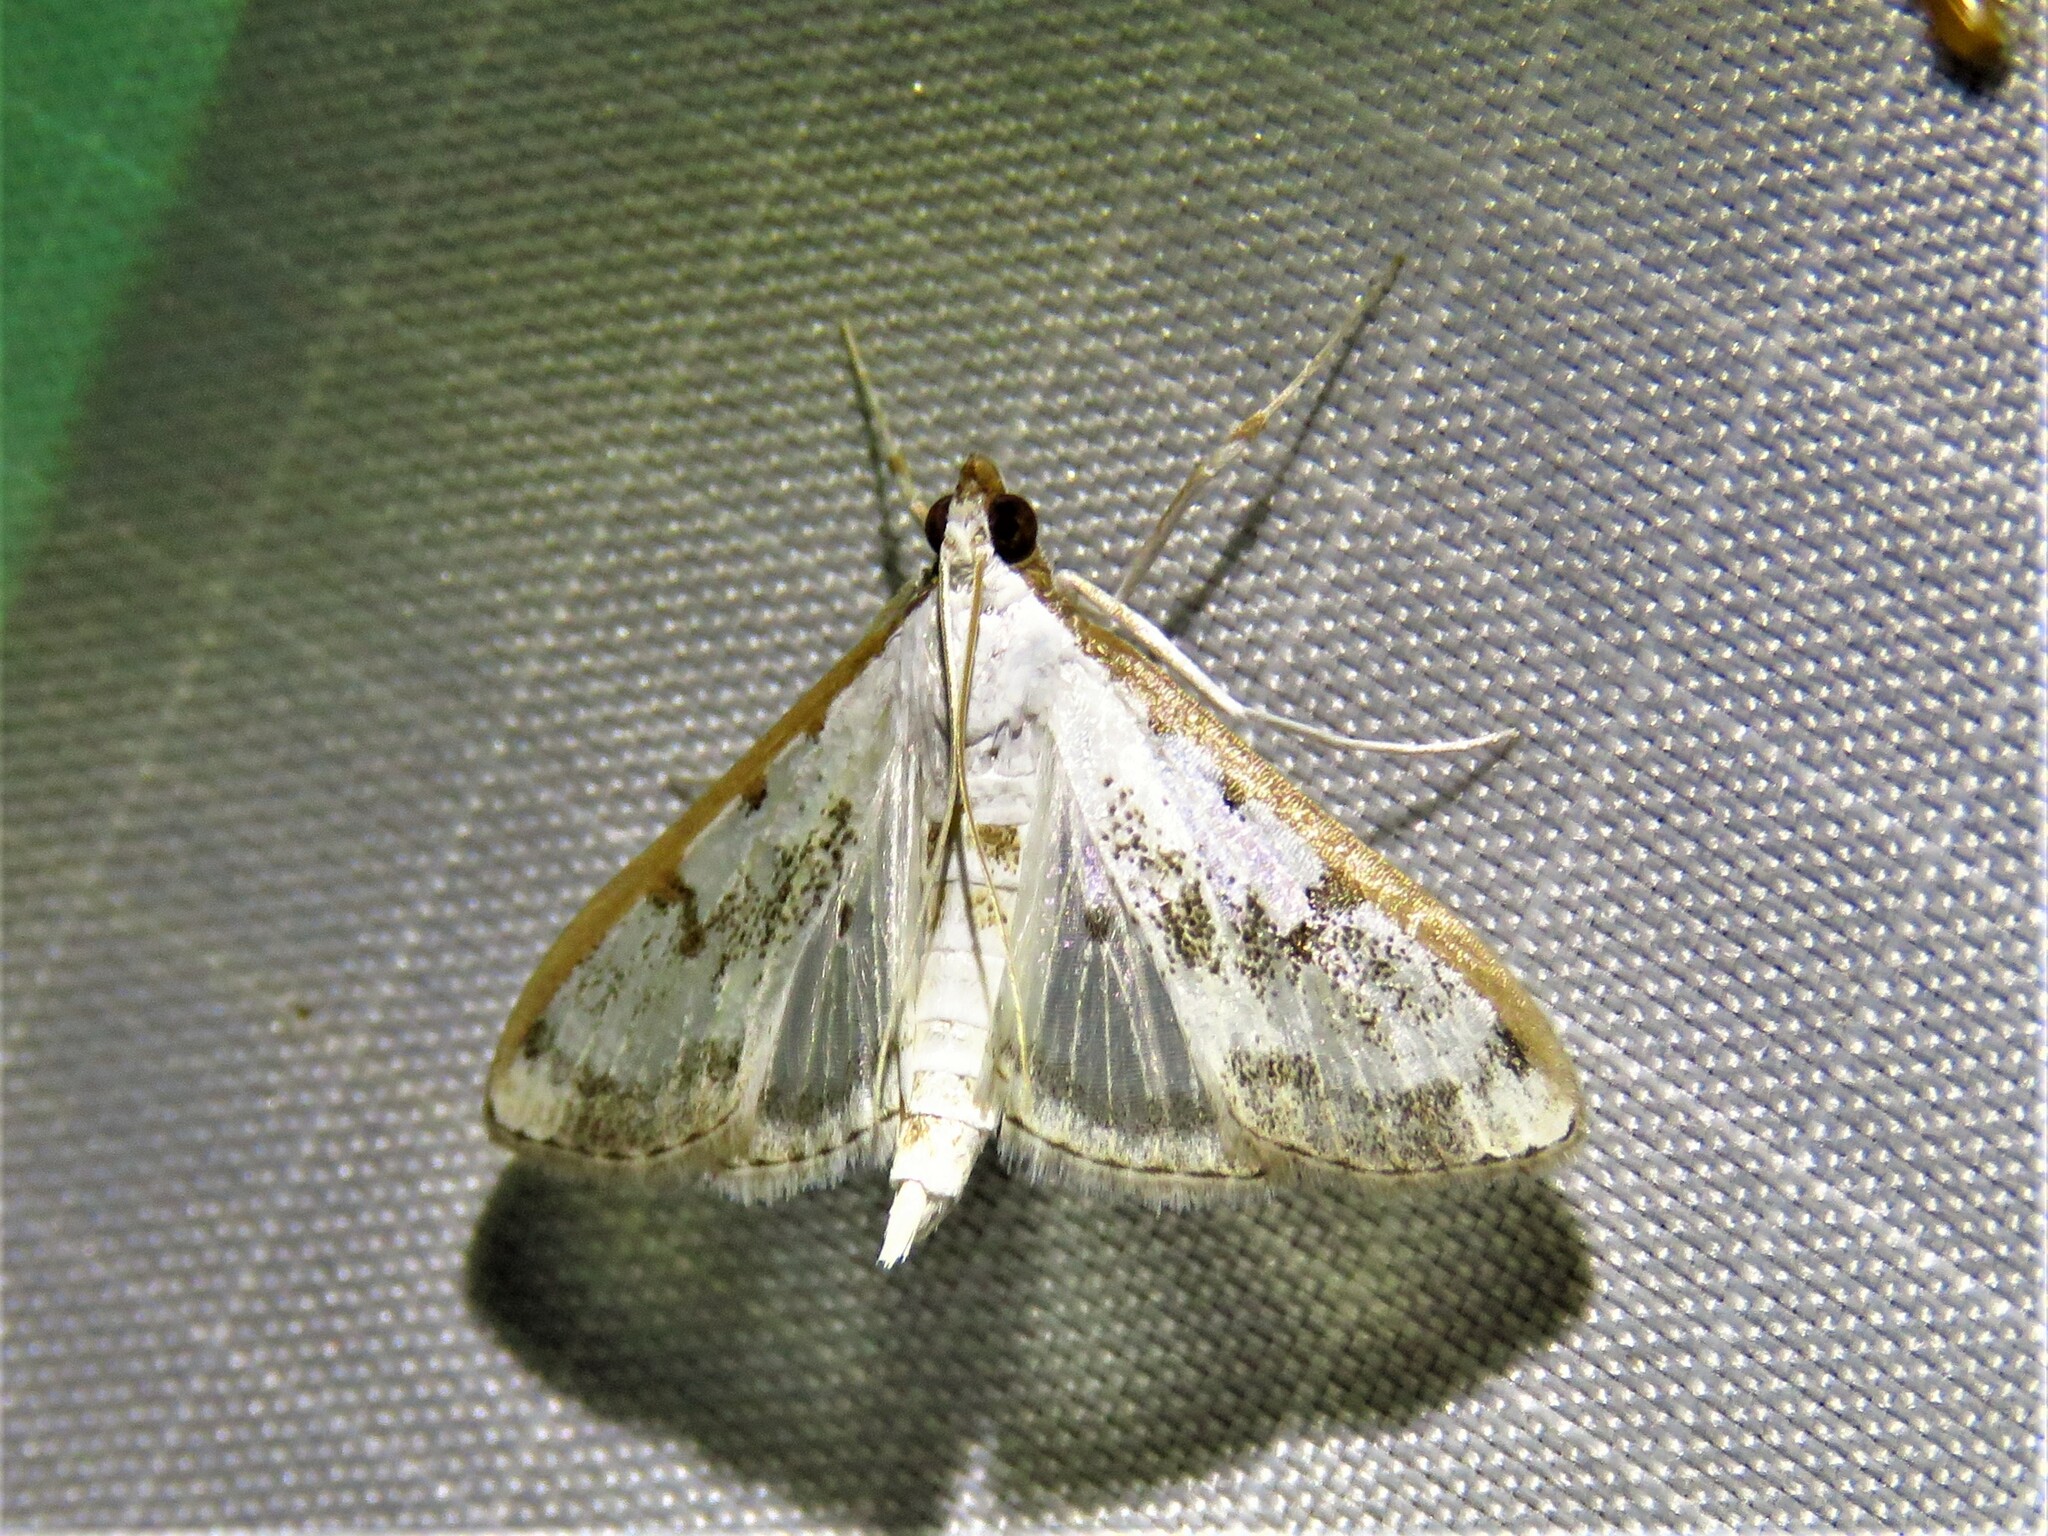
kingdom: Animalia
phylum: Arthropoda
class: Insecta
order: Lepidoptera
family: Crambidae
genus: Palpita
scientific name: Palpita gracilalis
